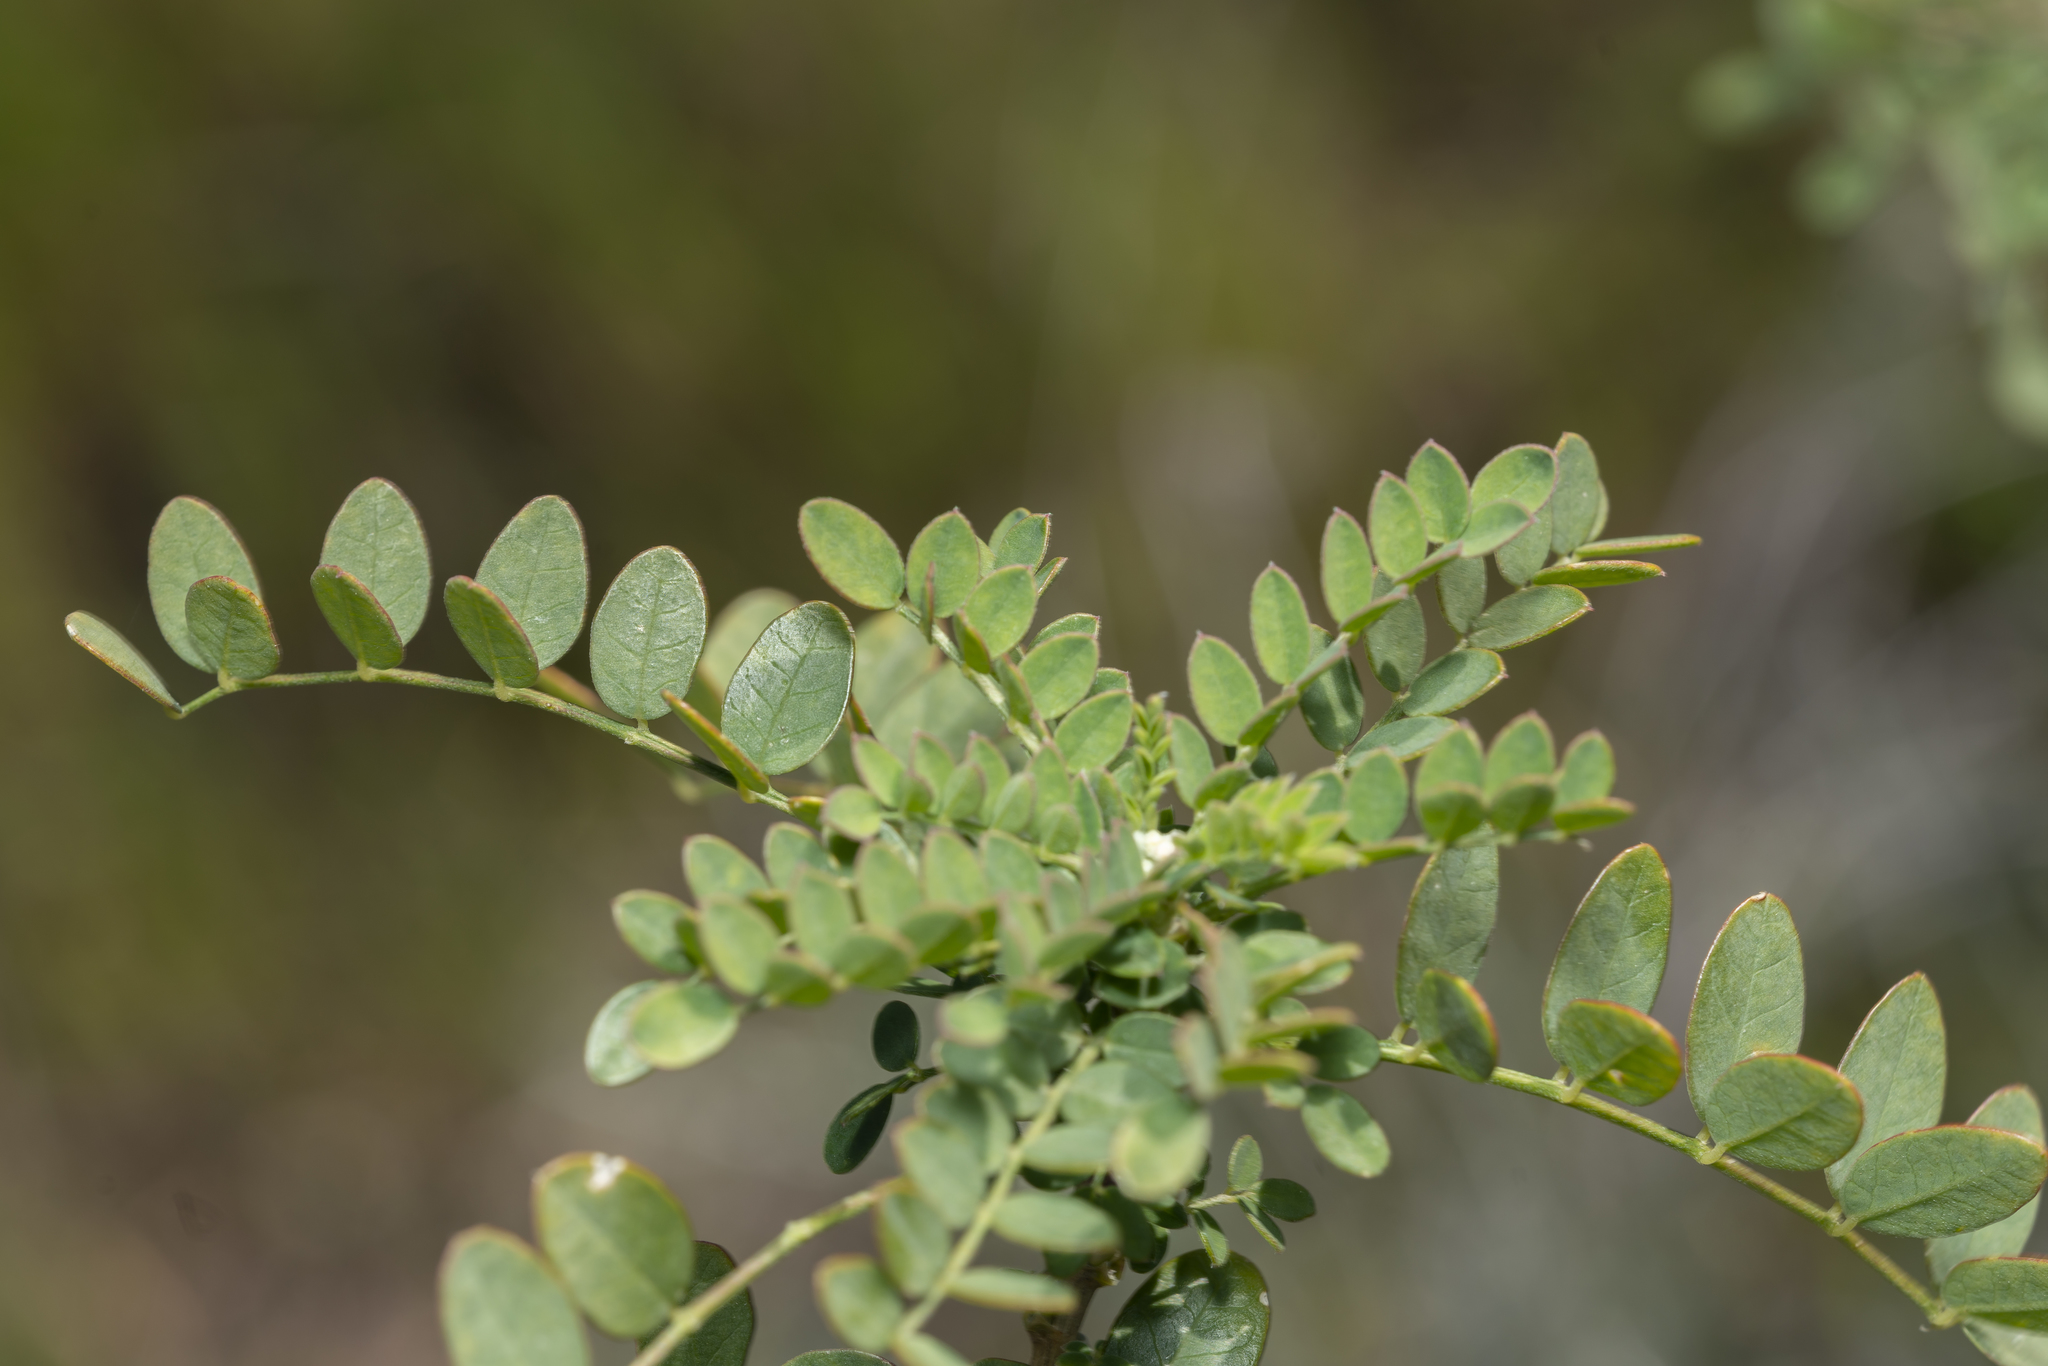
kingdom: Plantae
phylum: Tracheophyta
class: Magnoliopsida
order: Fabales
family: Fabaceae
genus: Colutea
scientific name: Colutea insularis
